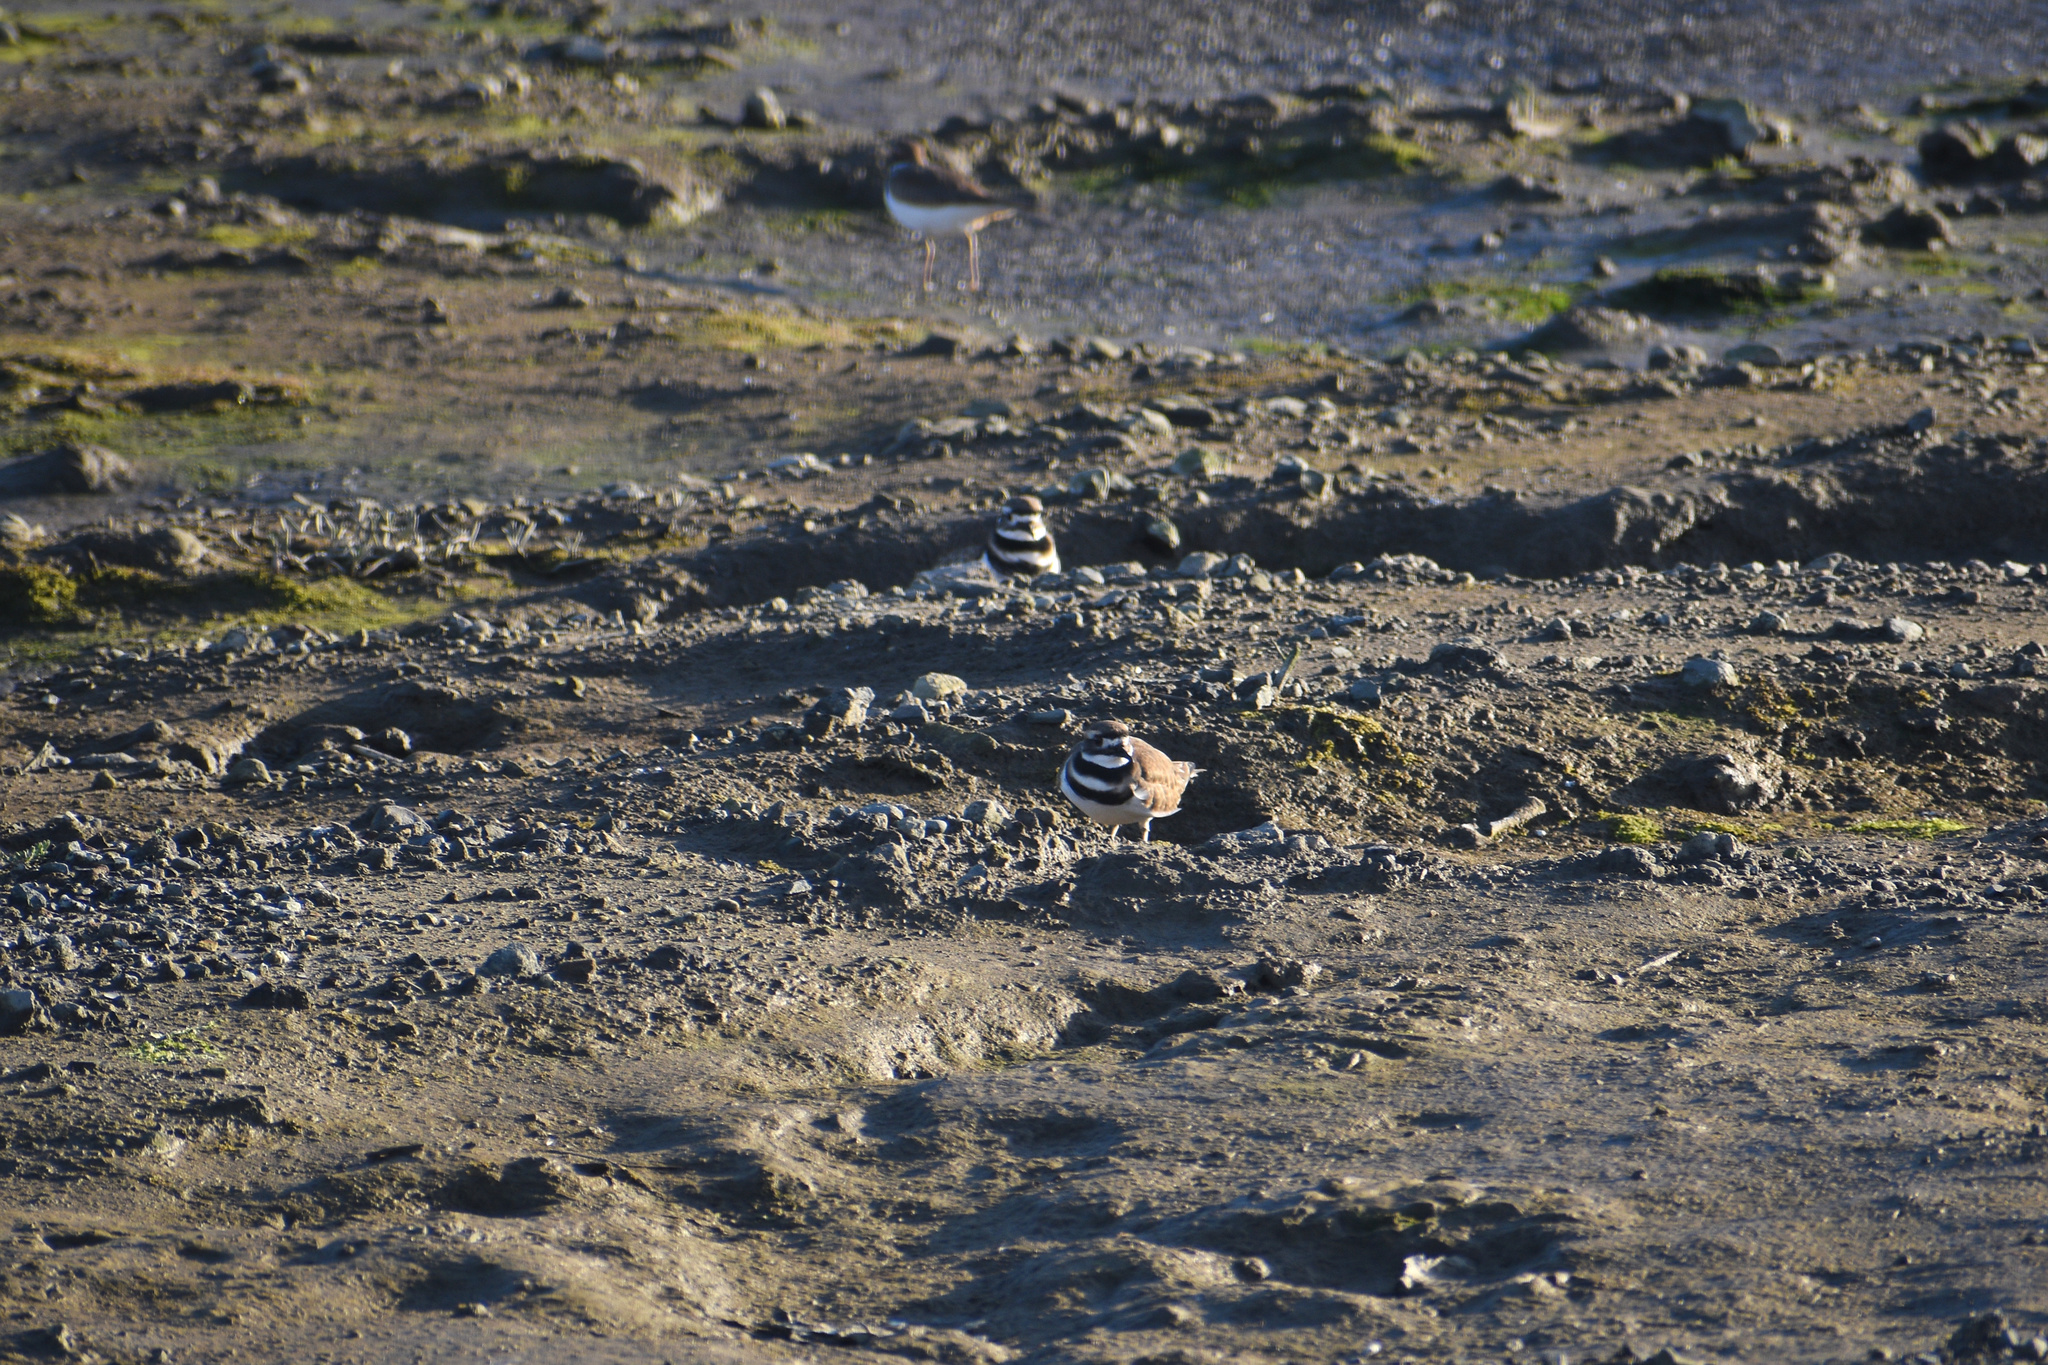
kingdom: Animalia
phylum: Chordata
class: Aves
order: Charadriiformes
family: Charadriidae
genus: Charadrius
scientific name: Charadrius vociferus
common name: Killdeer
